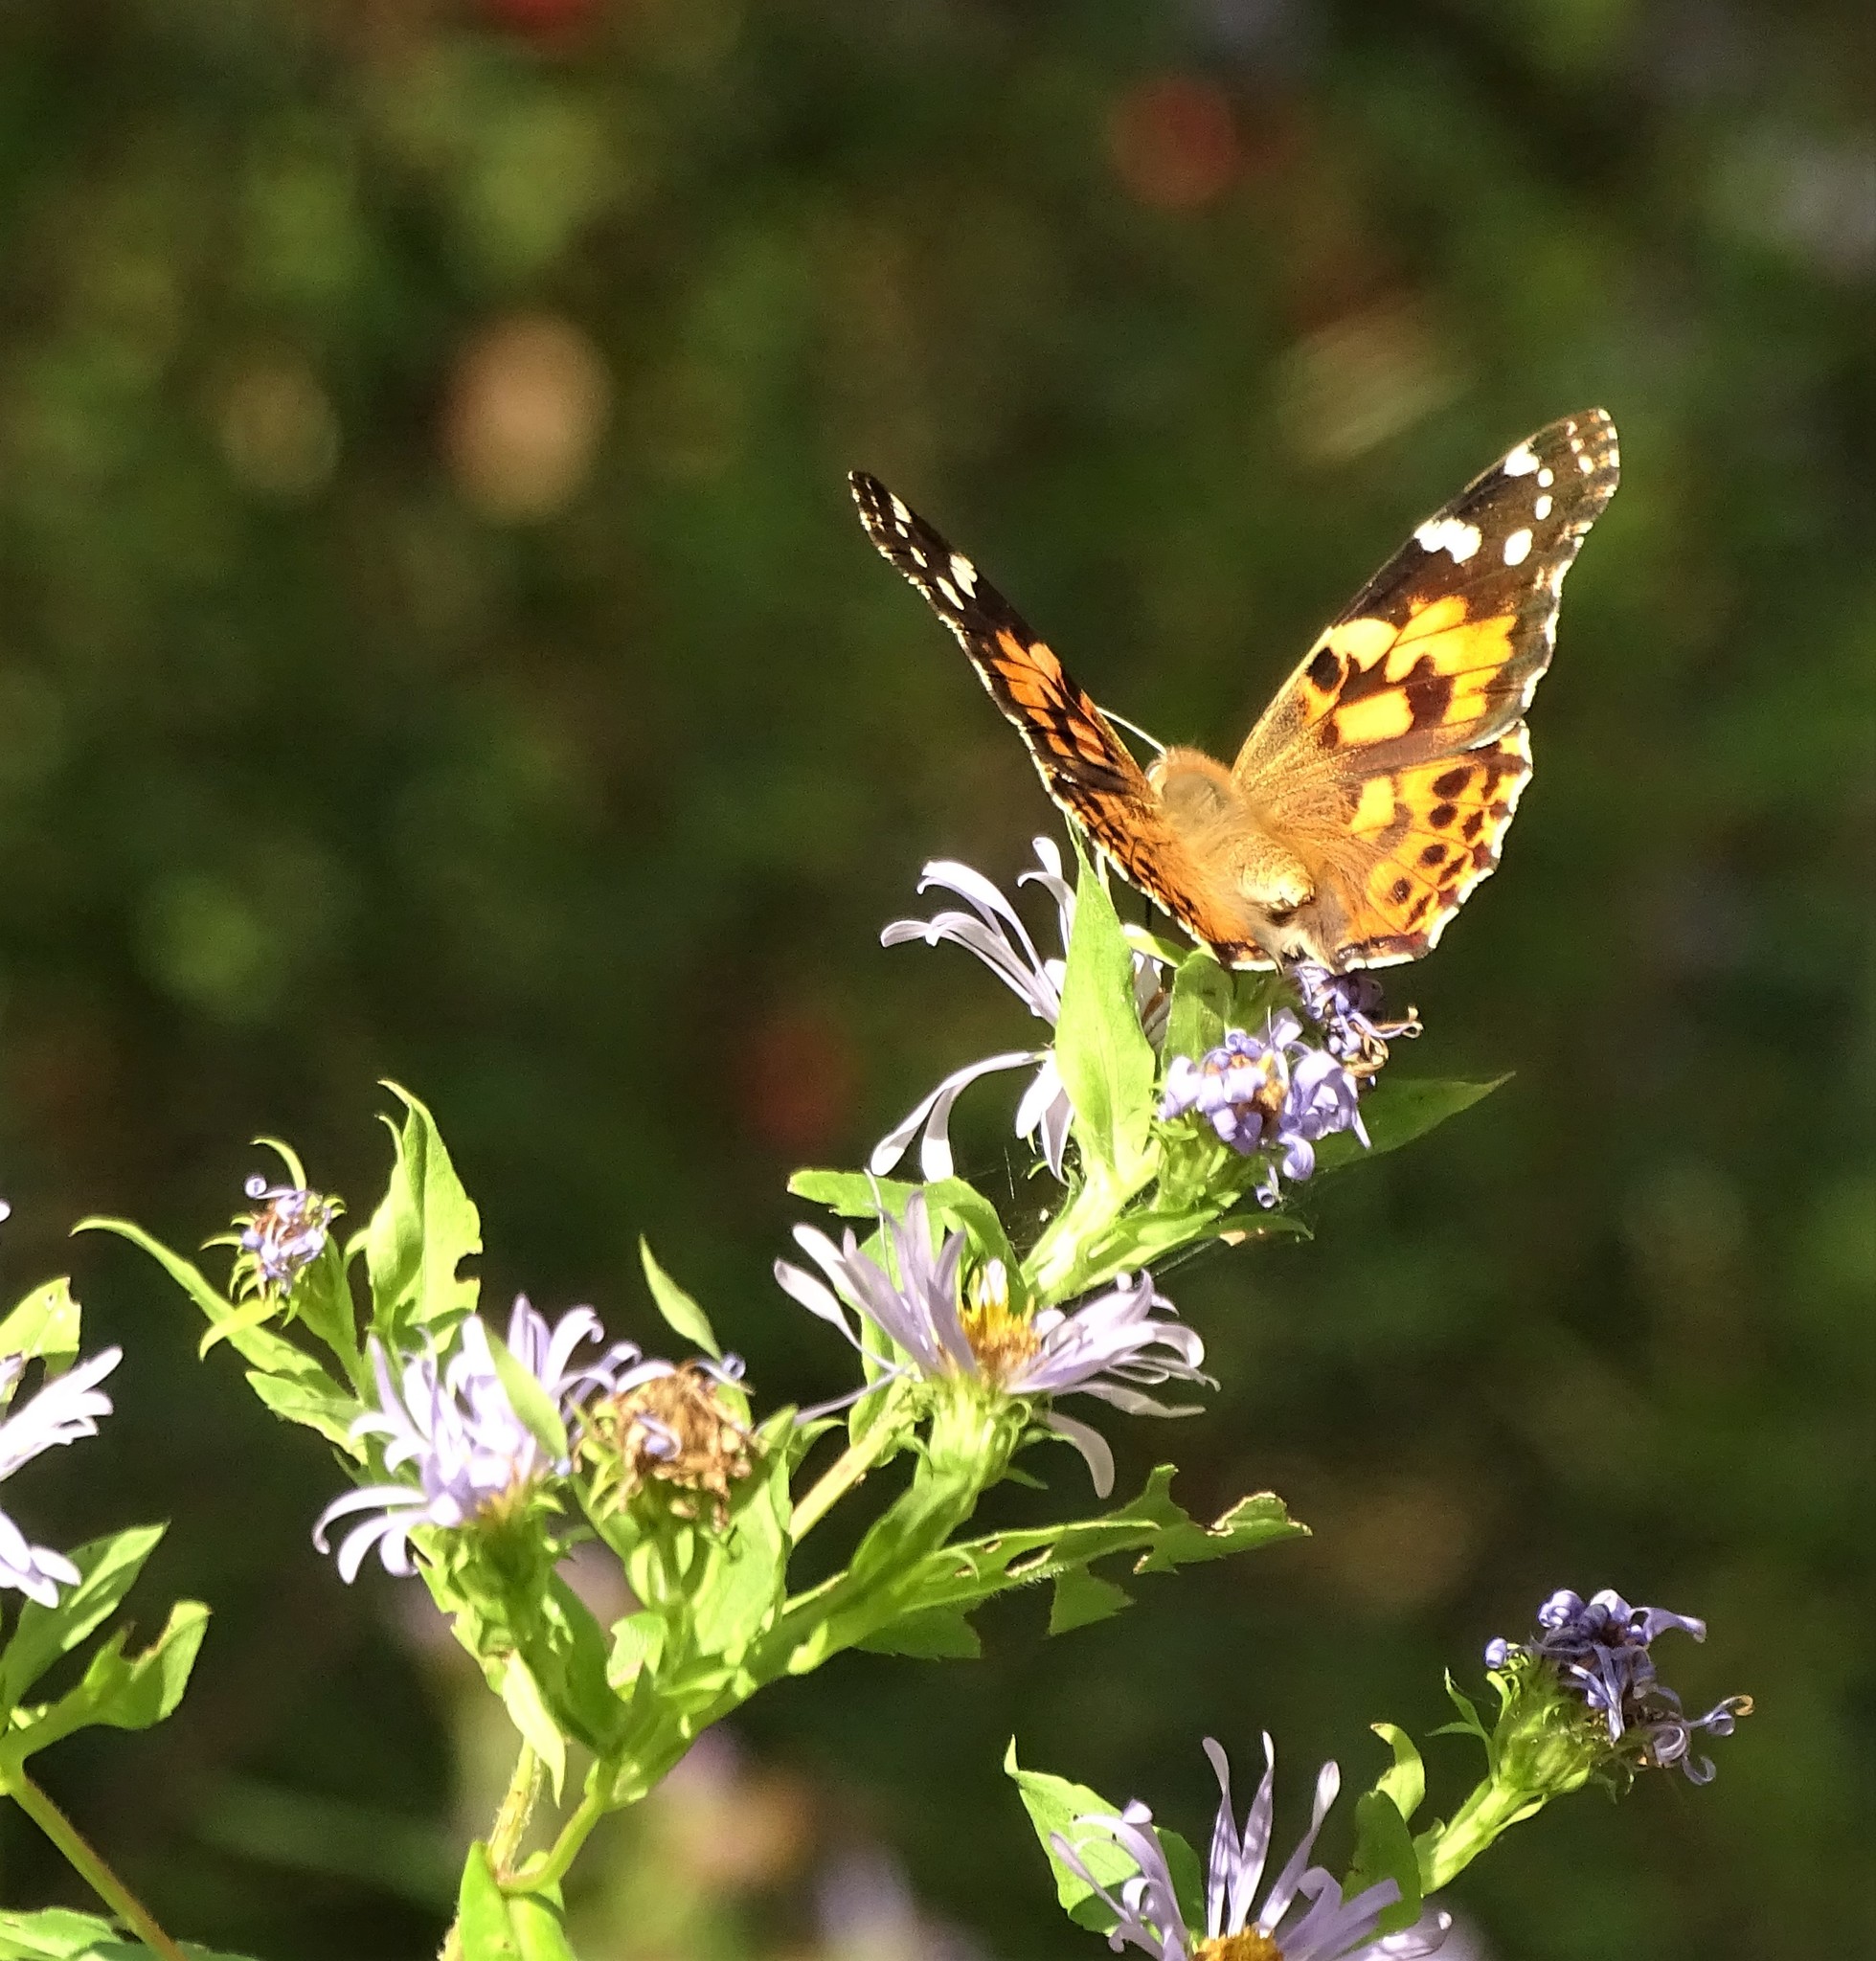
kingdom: Animalia
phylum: Arthropoda
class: Insecta
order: Lepidoptera
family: Nymphalidae
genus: Vanessa
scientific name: Vanessa cardui
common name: Painted lady
